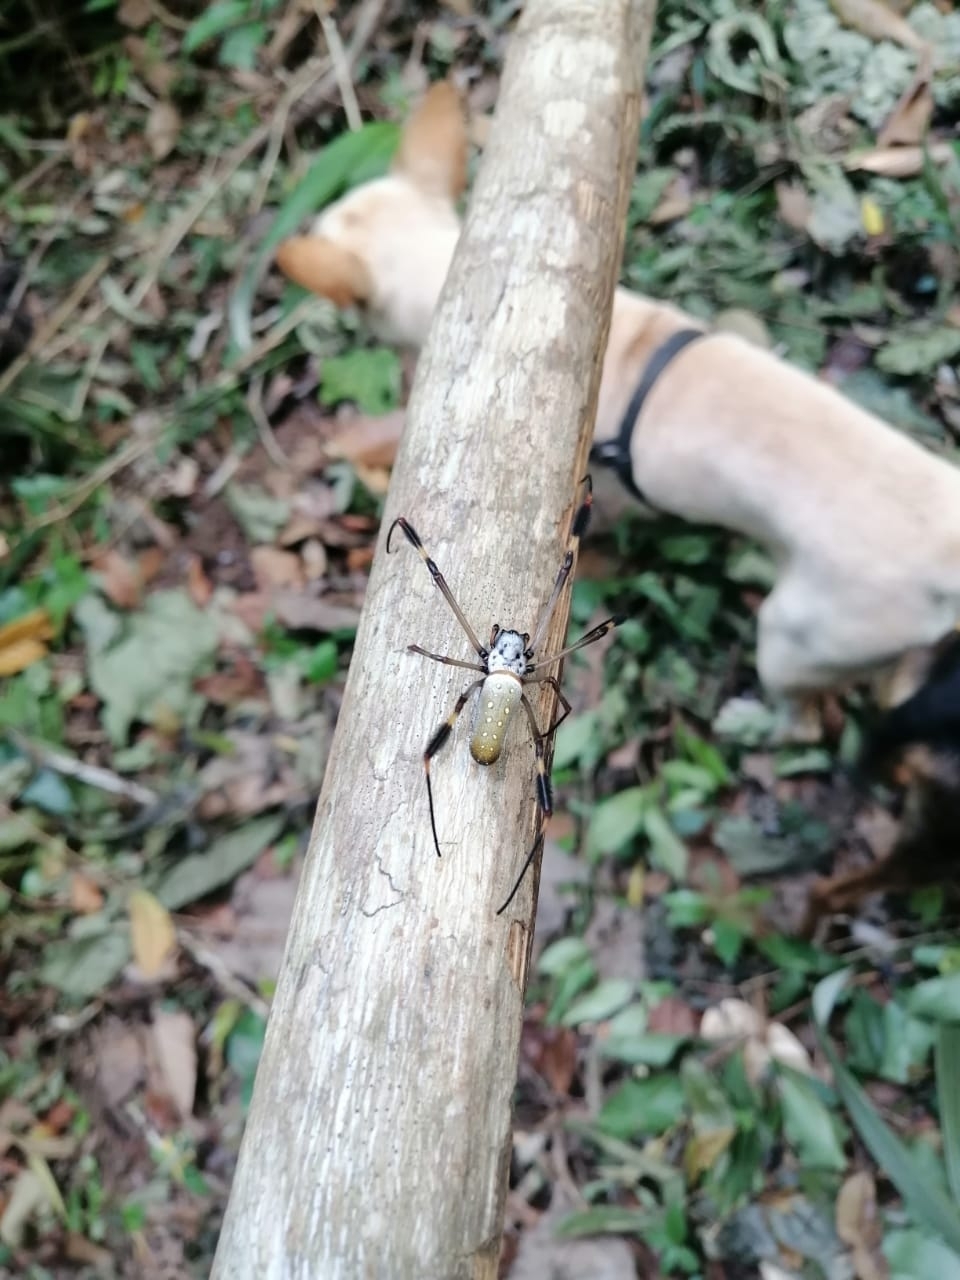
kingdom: Animalia
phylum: Arthropoda
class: Arachnida
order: Araneae
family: Araneidae
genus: Trichonephila
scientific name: Trichonephila clavipes
